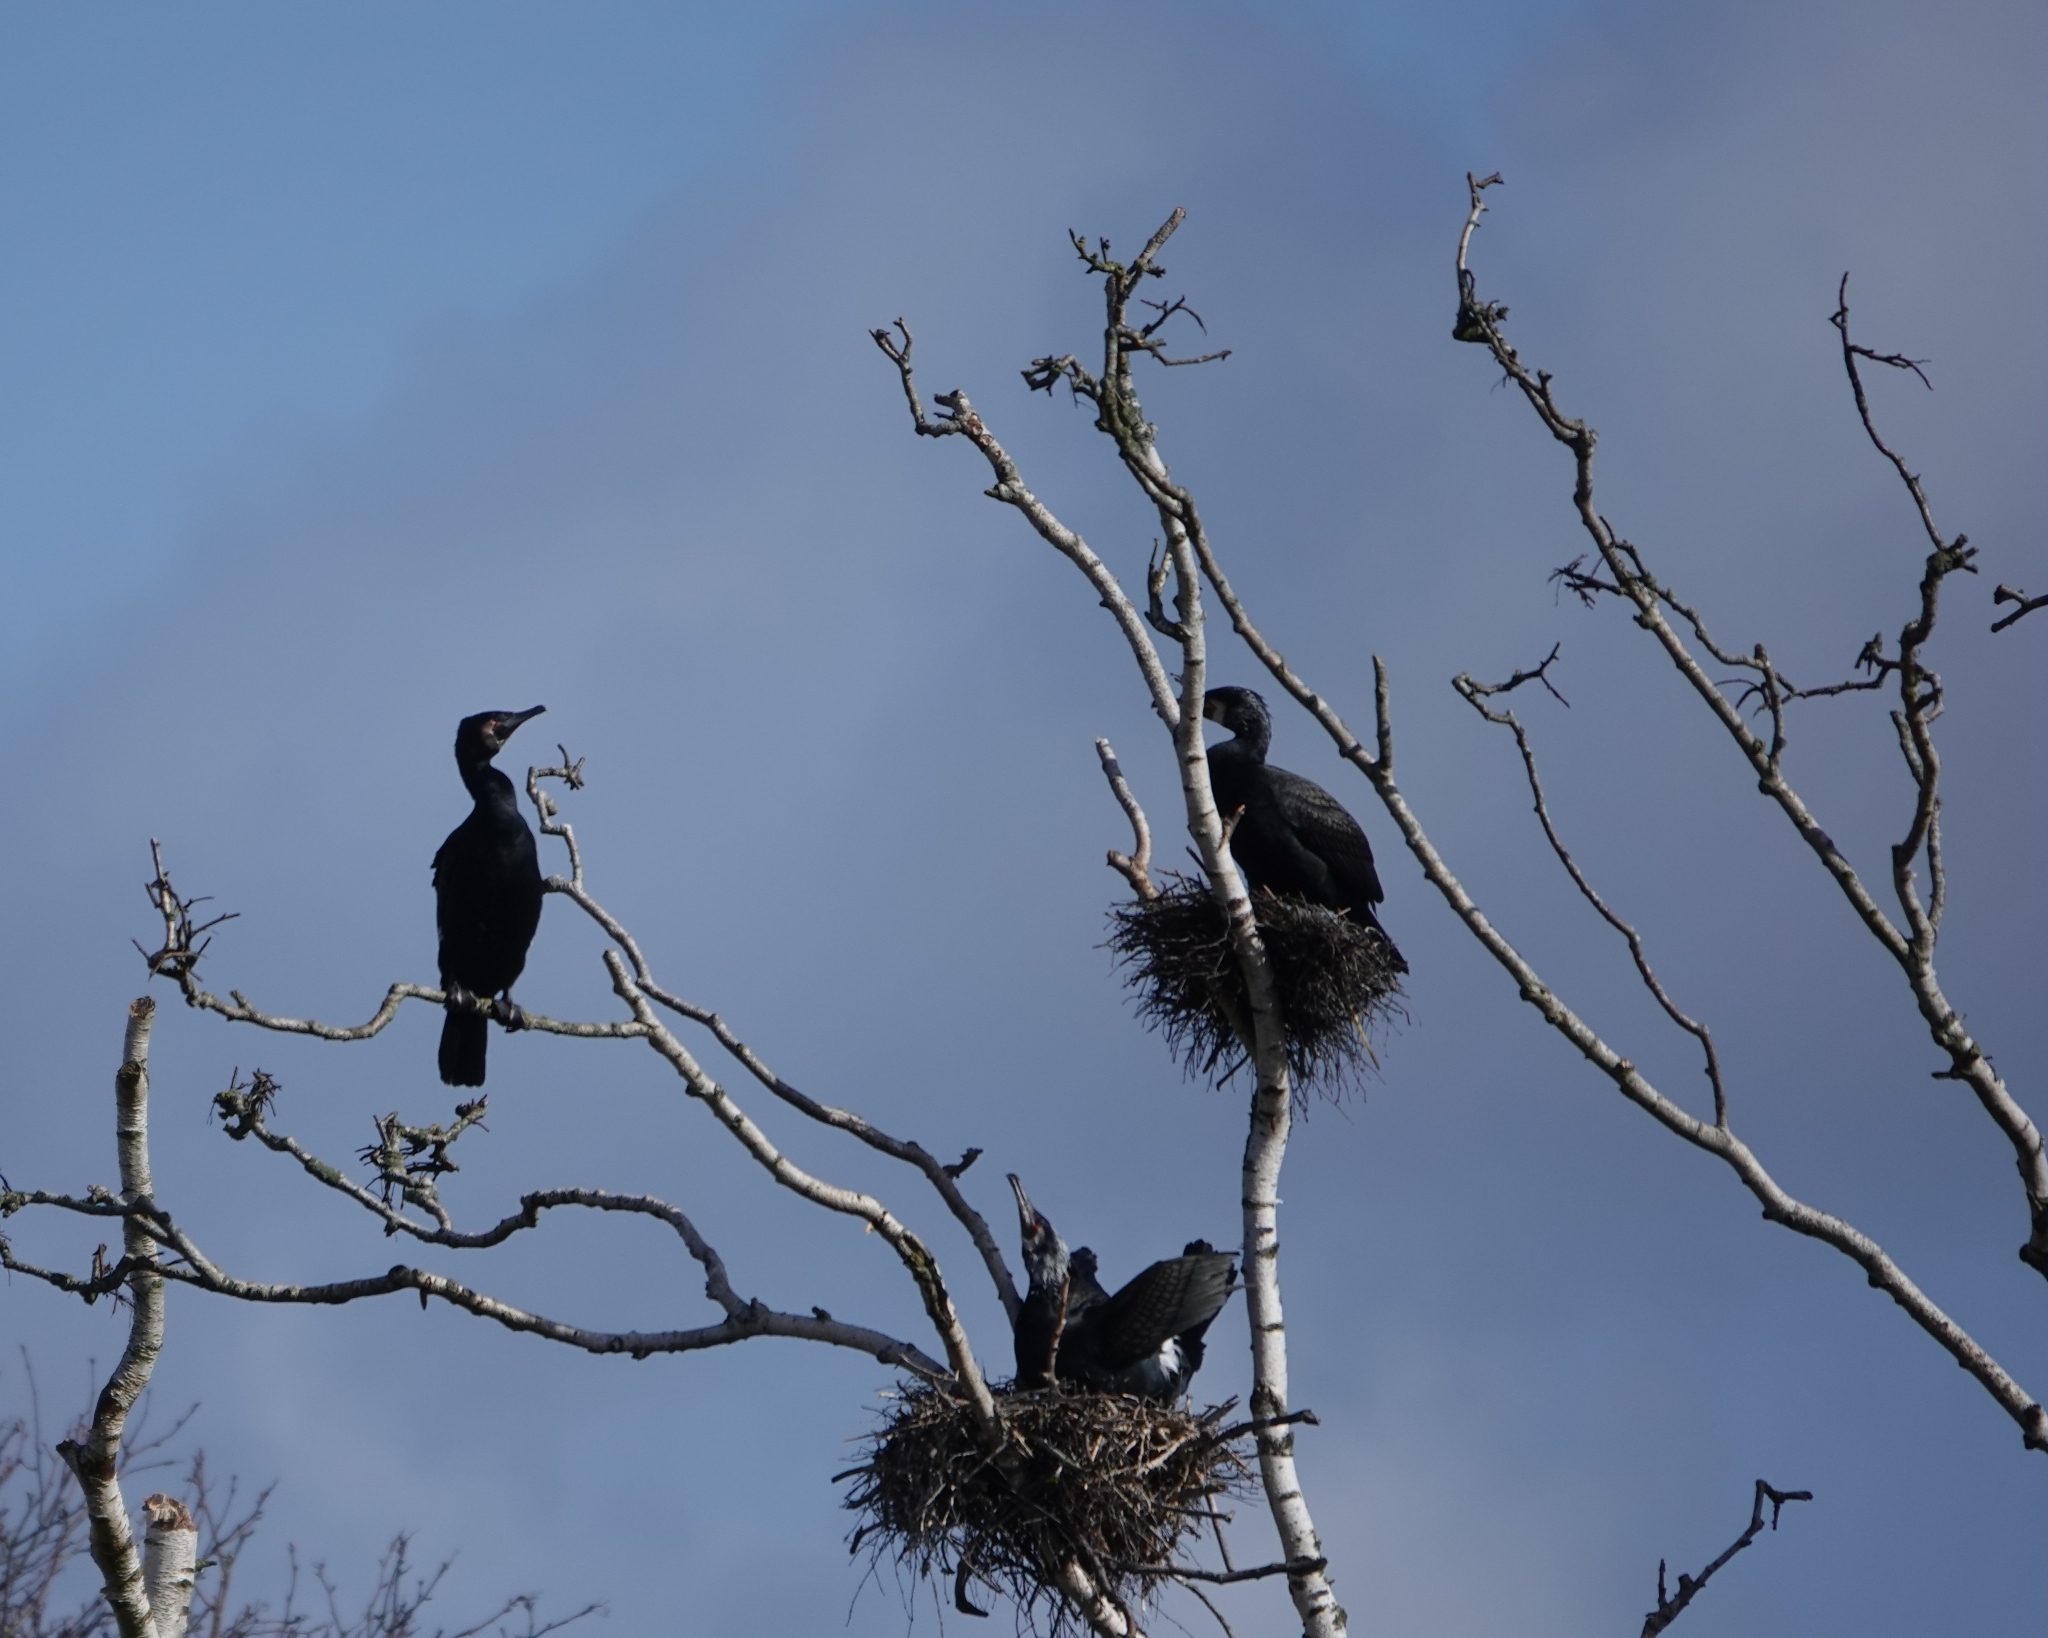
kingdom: Animalia
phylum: Chordata
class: Aves
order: Suliformes
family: Phalacrocoracidae
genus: Phalacrocorax
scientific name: Phalacrocorax carbo
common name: Great cormorant
